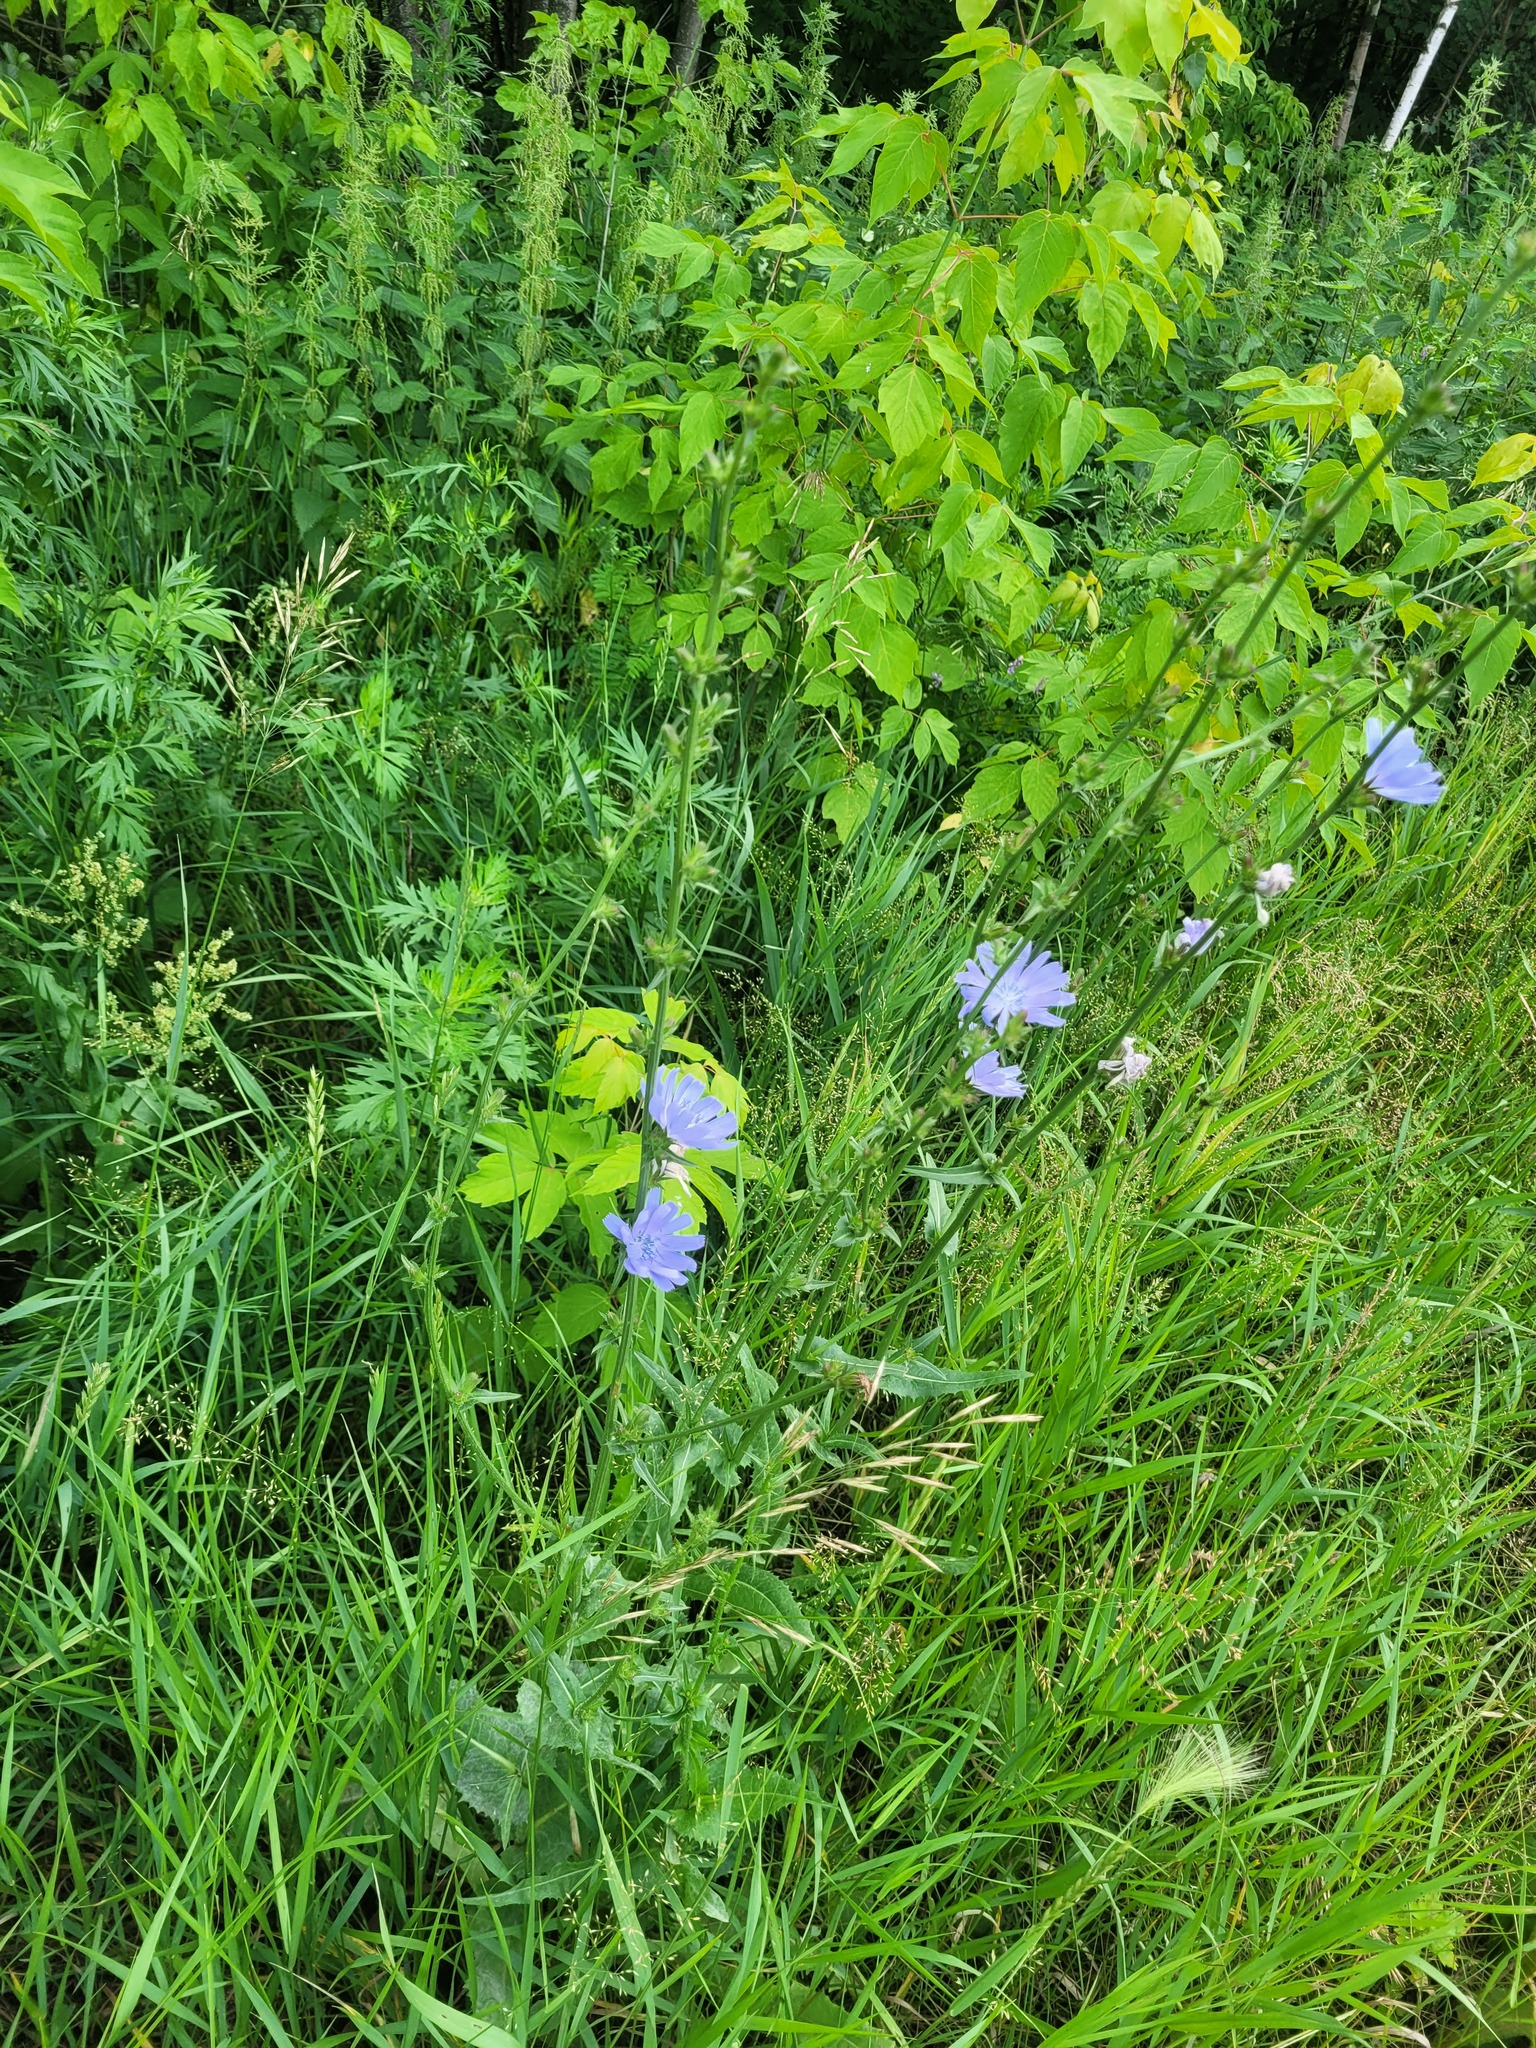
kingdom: Plantae
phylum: Tracheophyta
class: Magnoliopsida
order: Asterales
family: Asteraceae
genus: Cichorium
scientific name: Cichorium intybus
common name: Chicory
